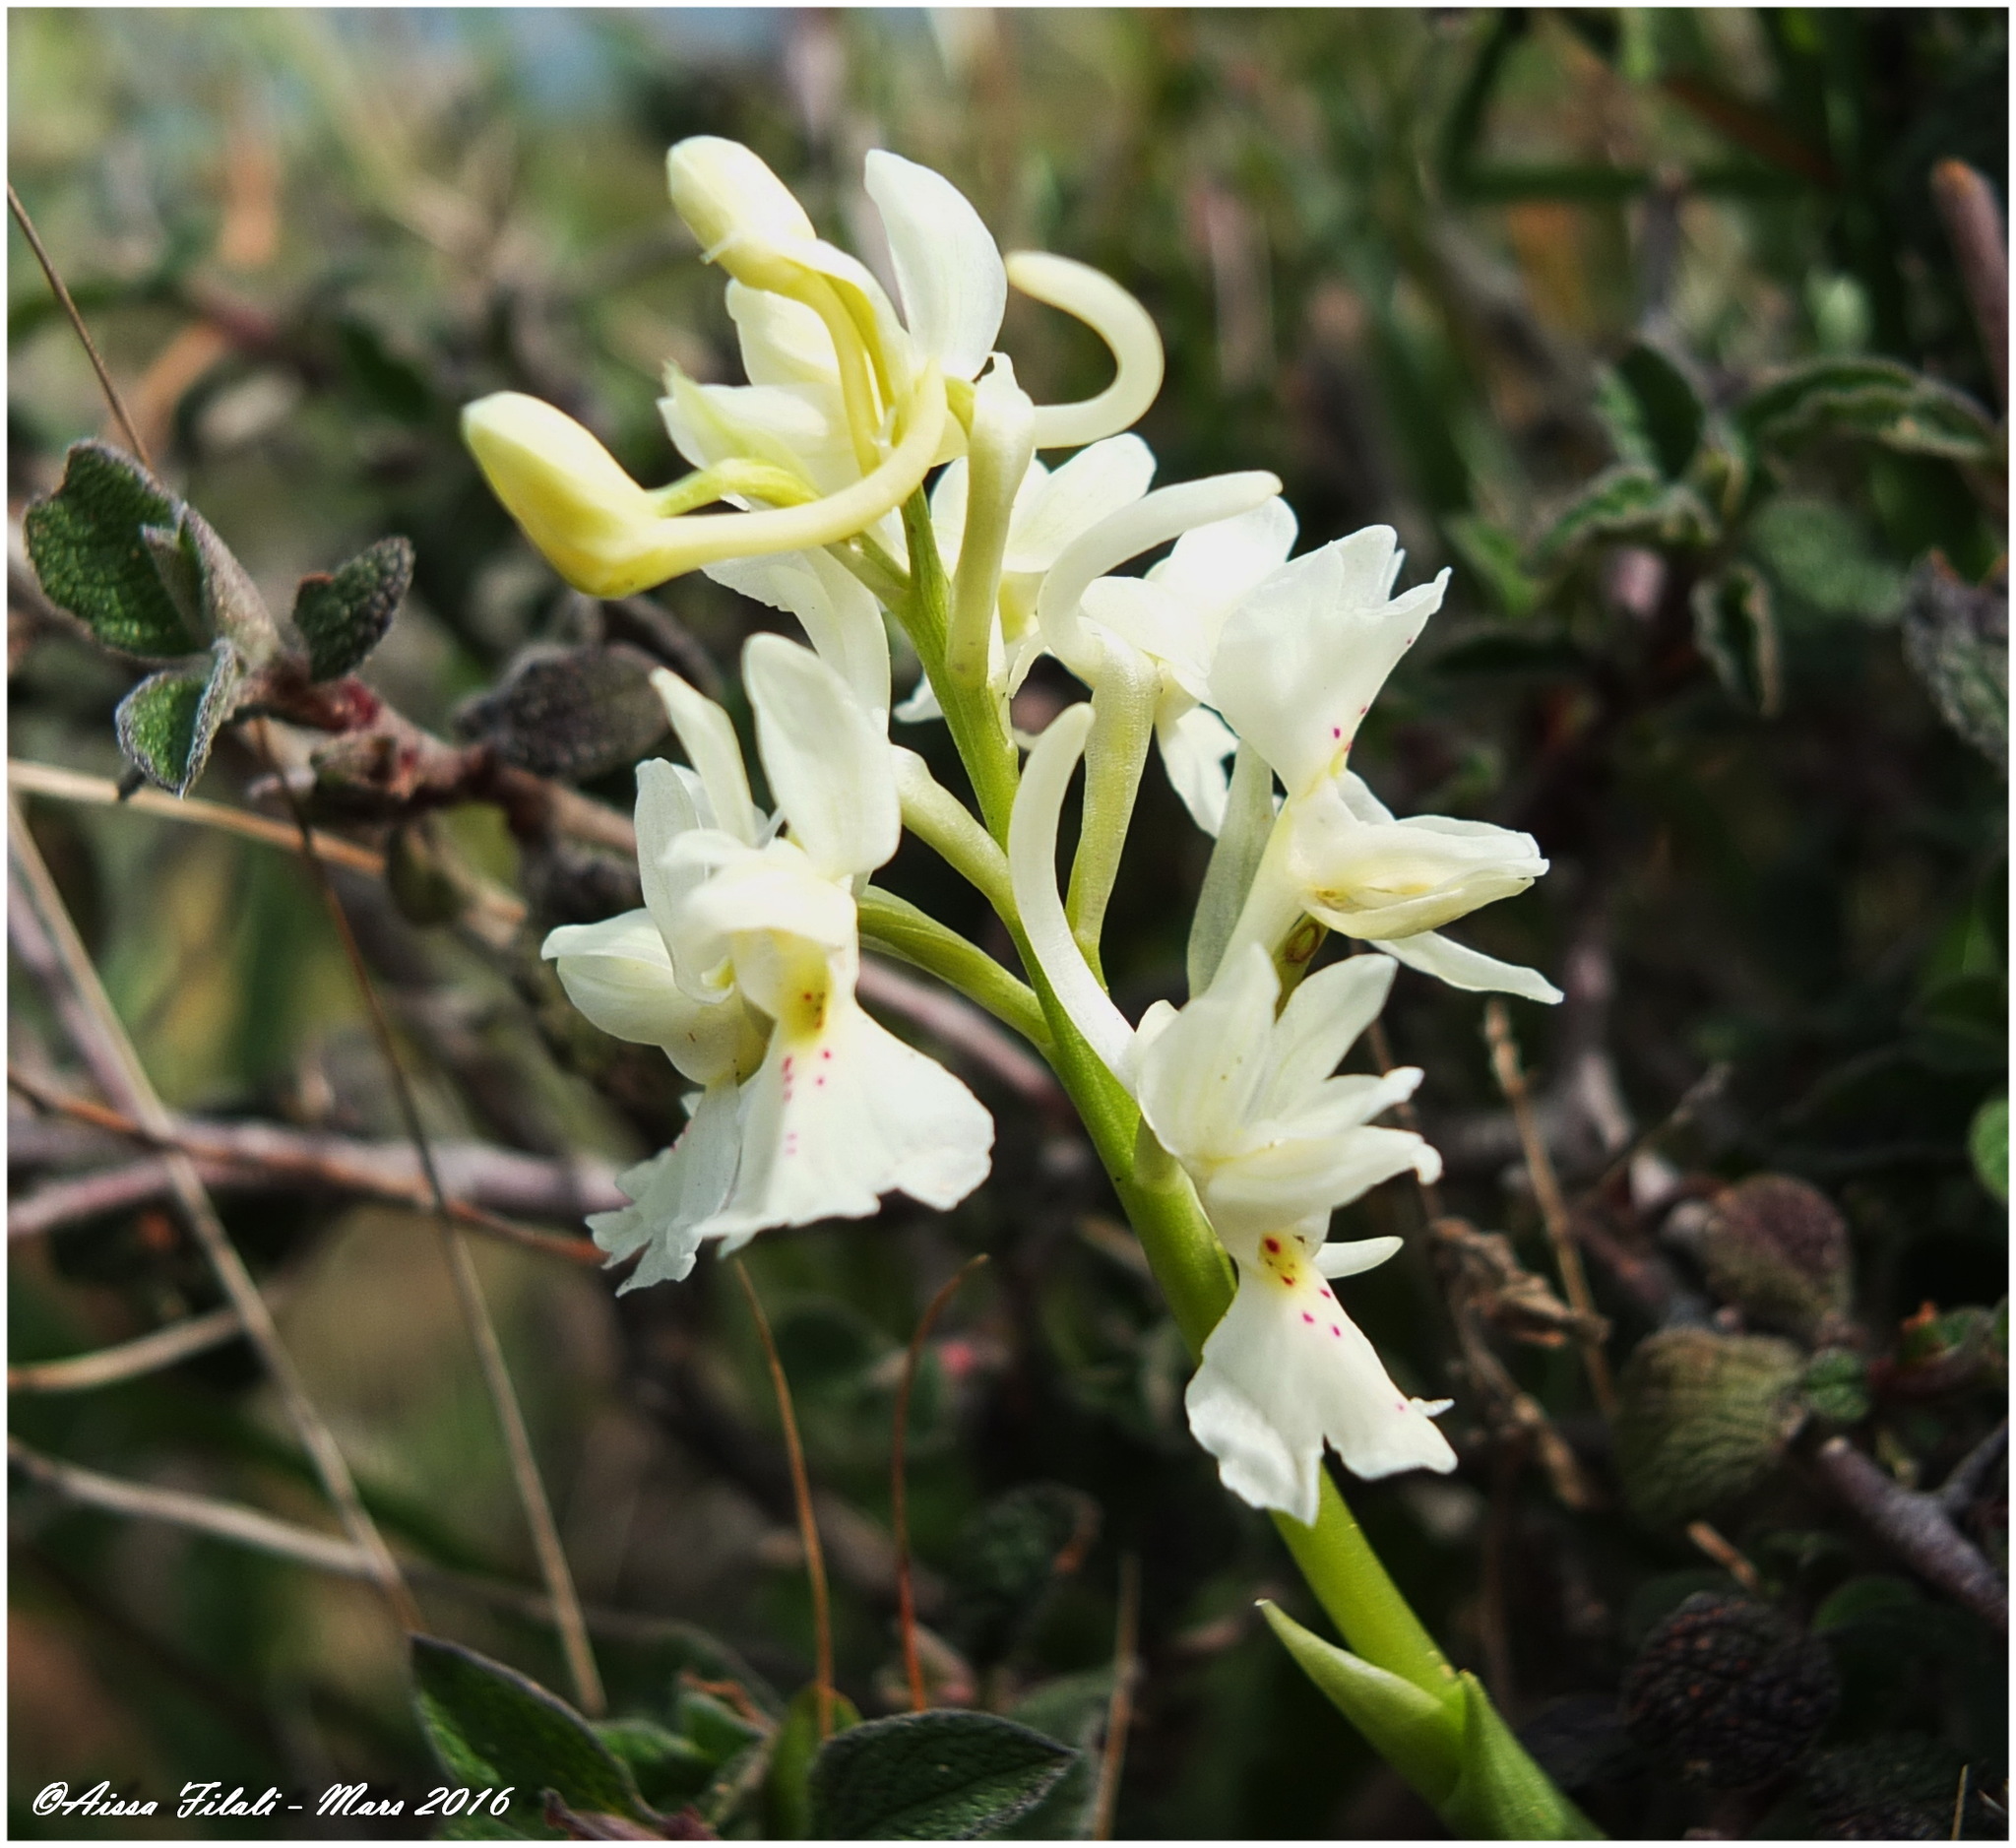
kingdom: Plantae
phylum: Tracheophyta
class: Liliopsida
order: Asparagales
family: Orchidaceae
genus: Orchis
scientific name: Orchis laeta
